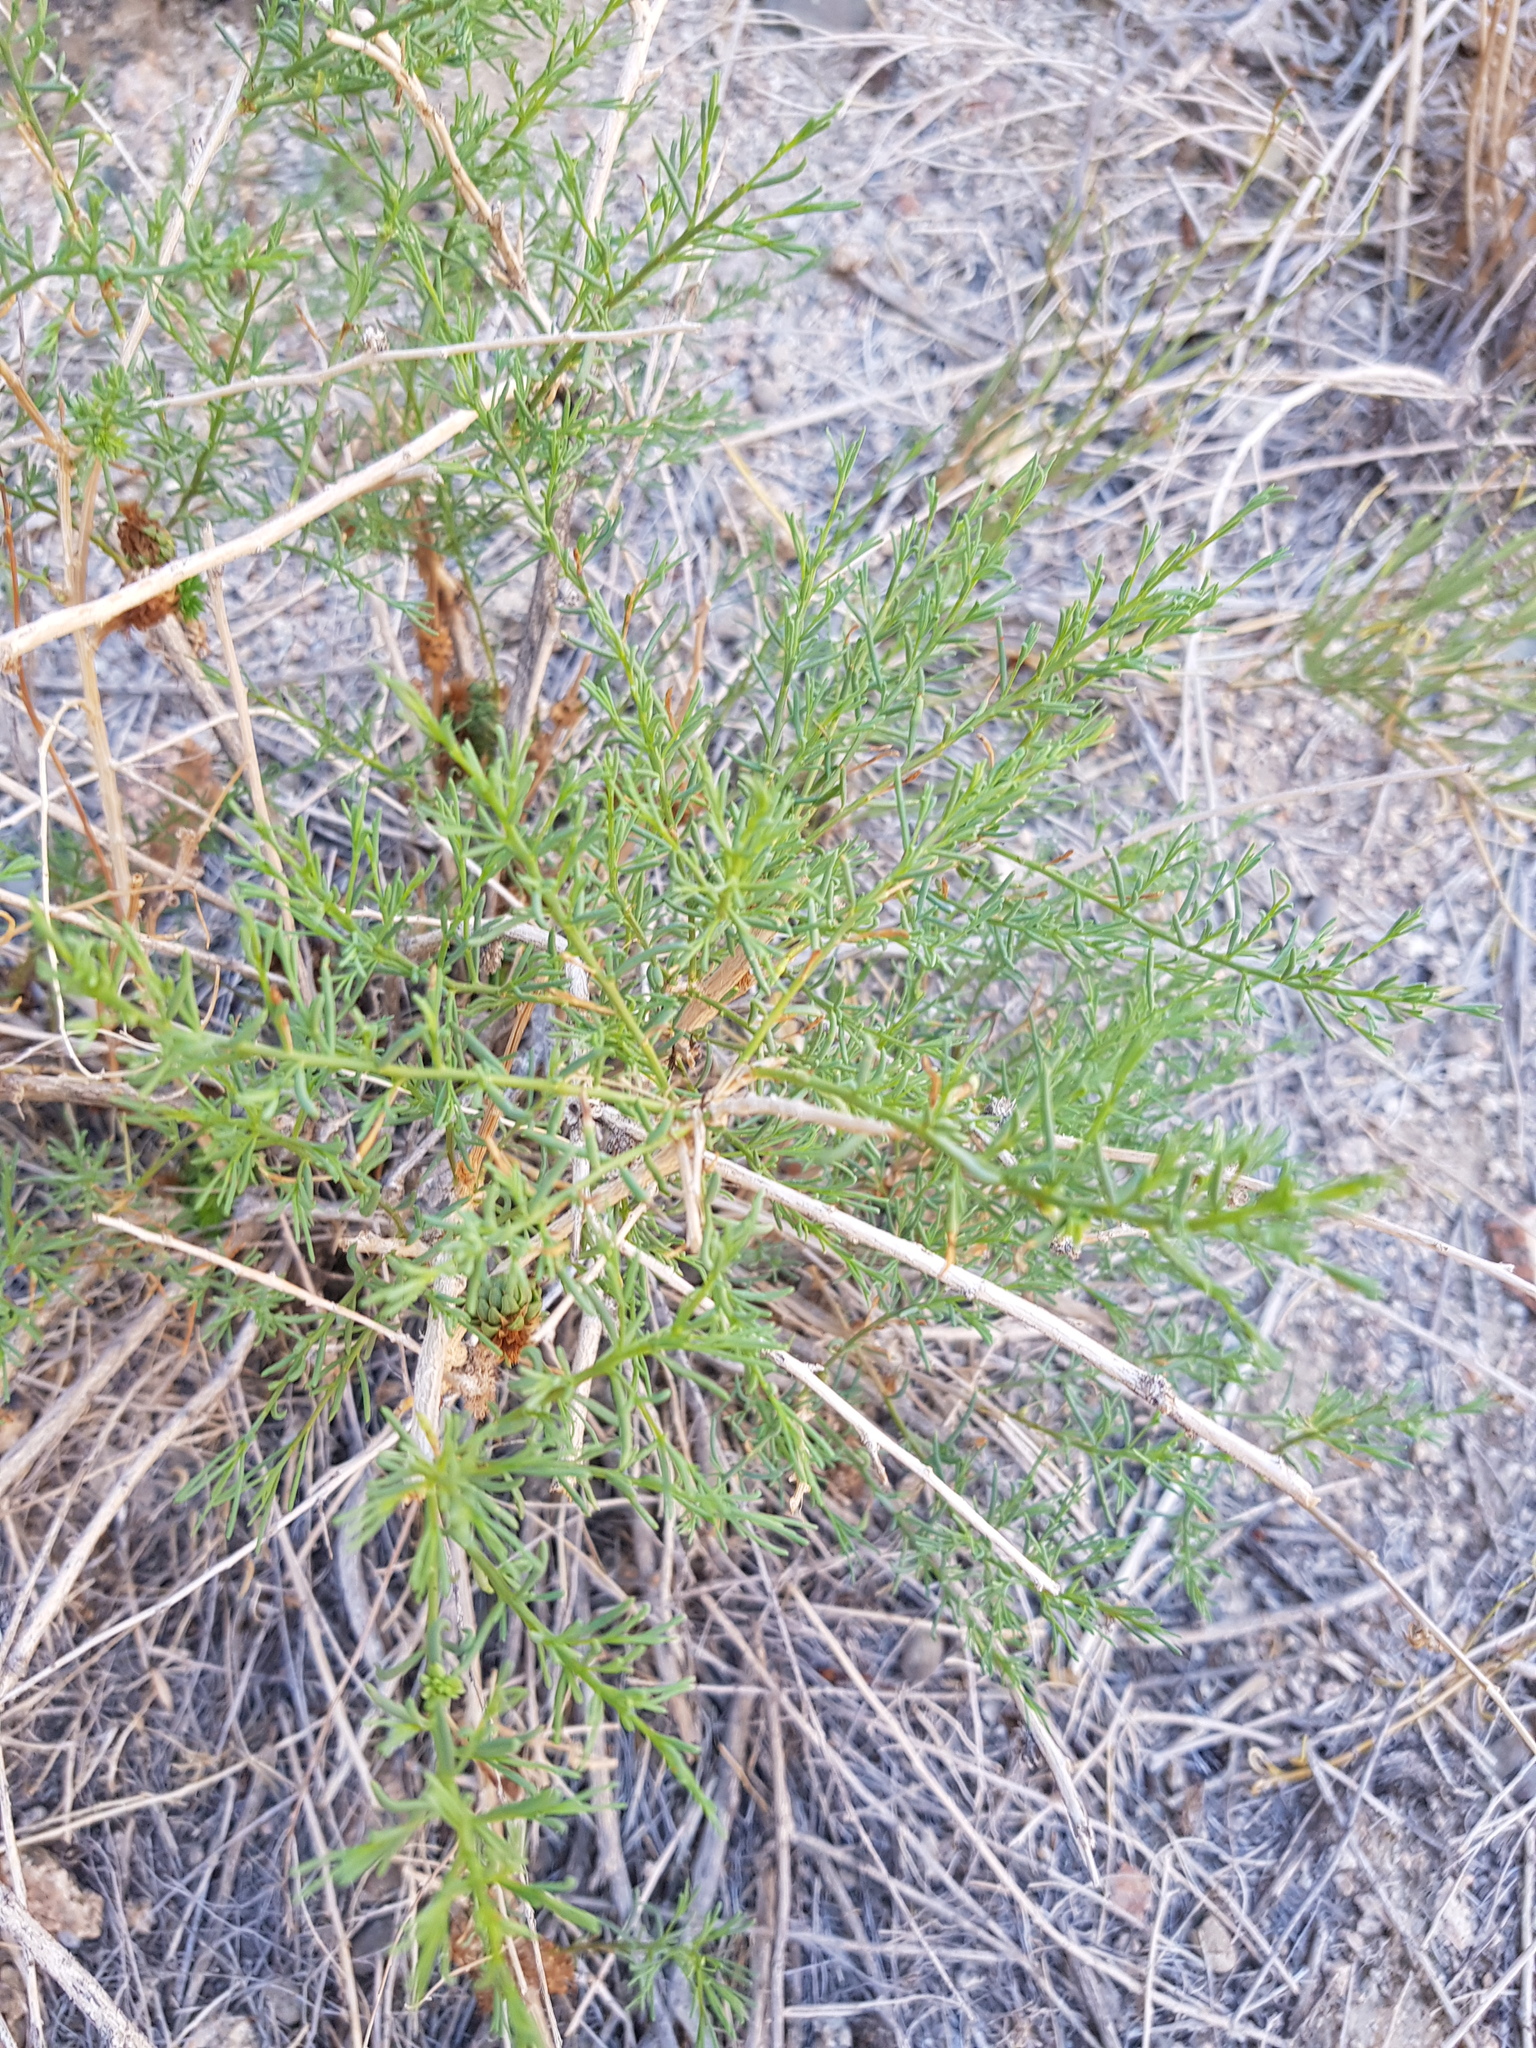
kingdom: Plantae
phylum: Tracheophyta
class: Magnoliopsida
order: Caryophyllales
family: Amaranthaceae
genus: Sympegma
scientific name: Sympegma regelii
